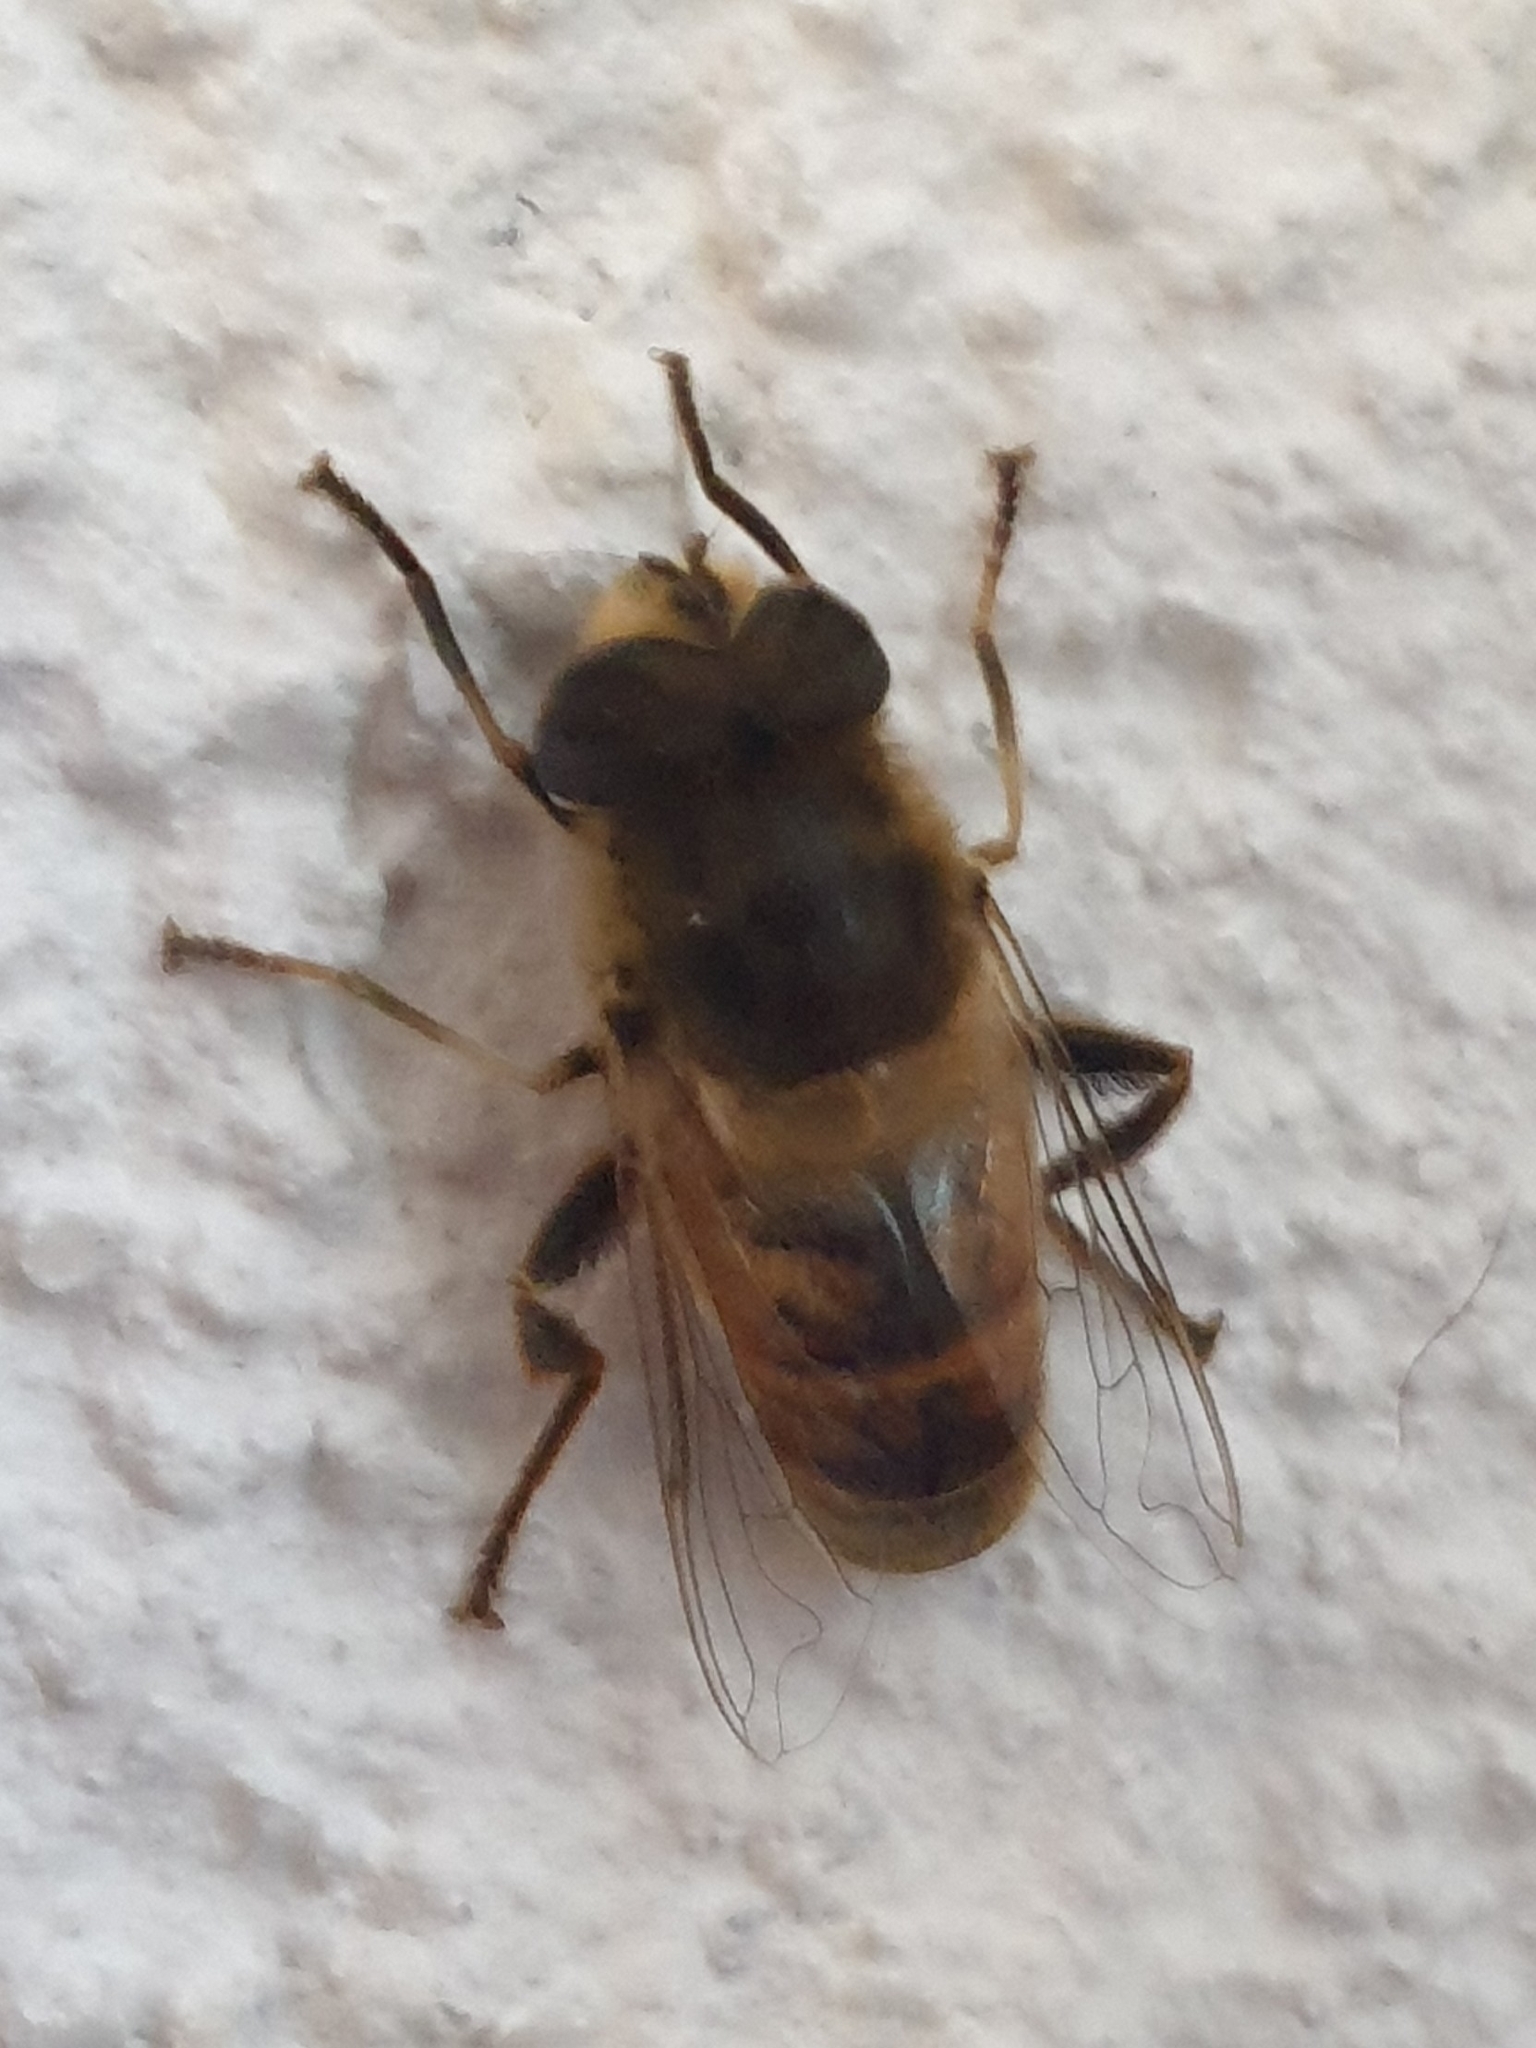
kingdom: Animalia
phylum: Arthropoda
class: Insecta
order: Diptera
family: Syrphidae
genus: Eristalis
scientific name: Eristalis tenax
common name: Drone fly
